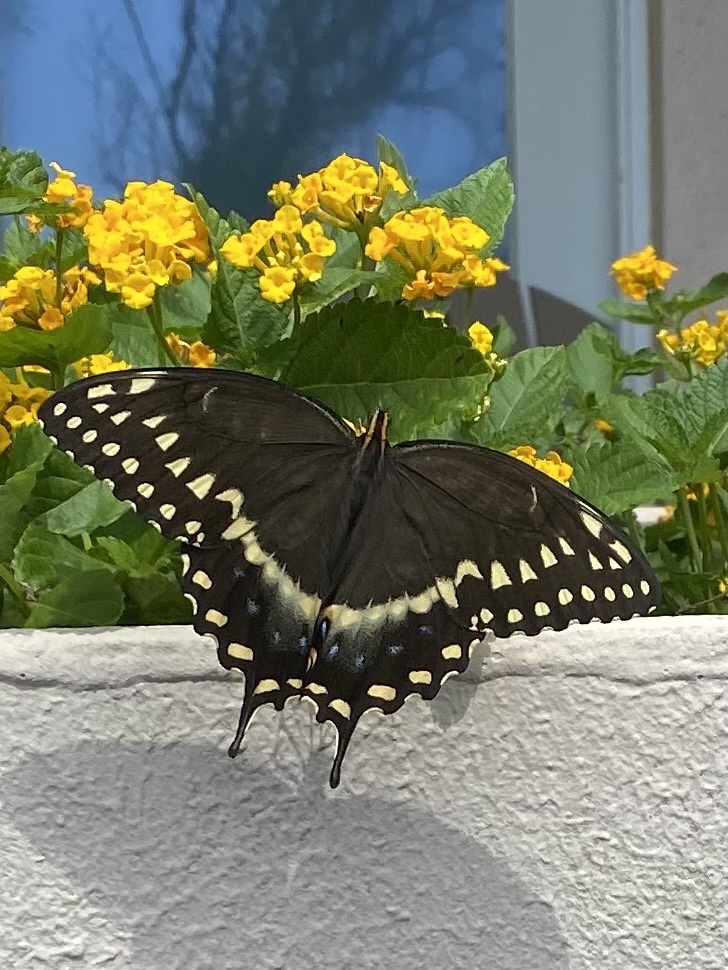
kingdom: Animalia
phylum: Arthropoda
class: Insecta
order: Lepidoptera
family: Papilionidae
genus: Papilio
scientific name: Papilio palamedes
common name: Palamedes swallowtail
